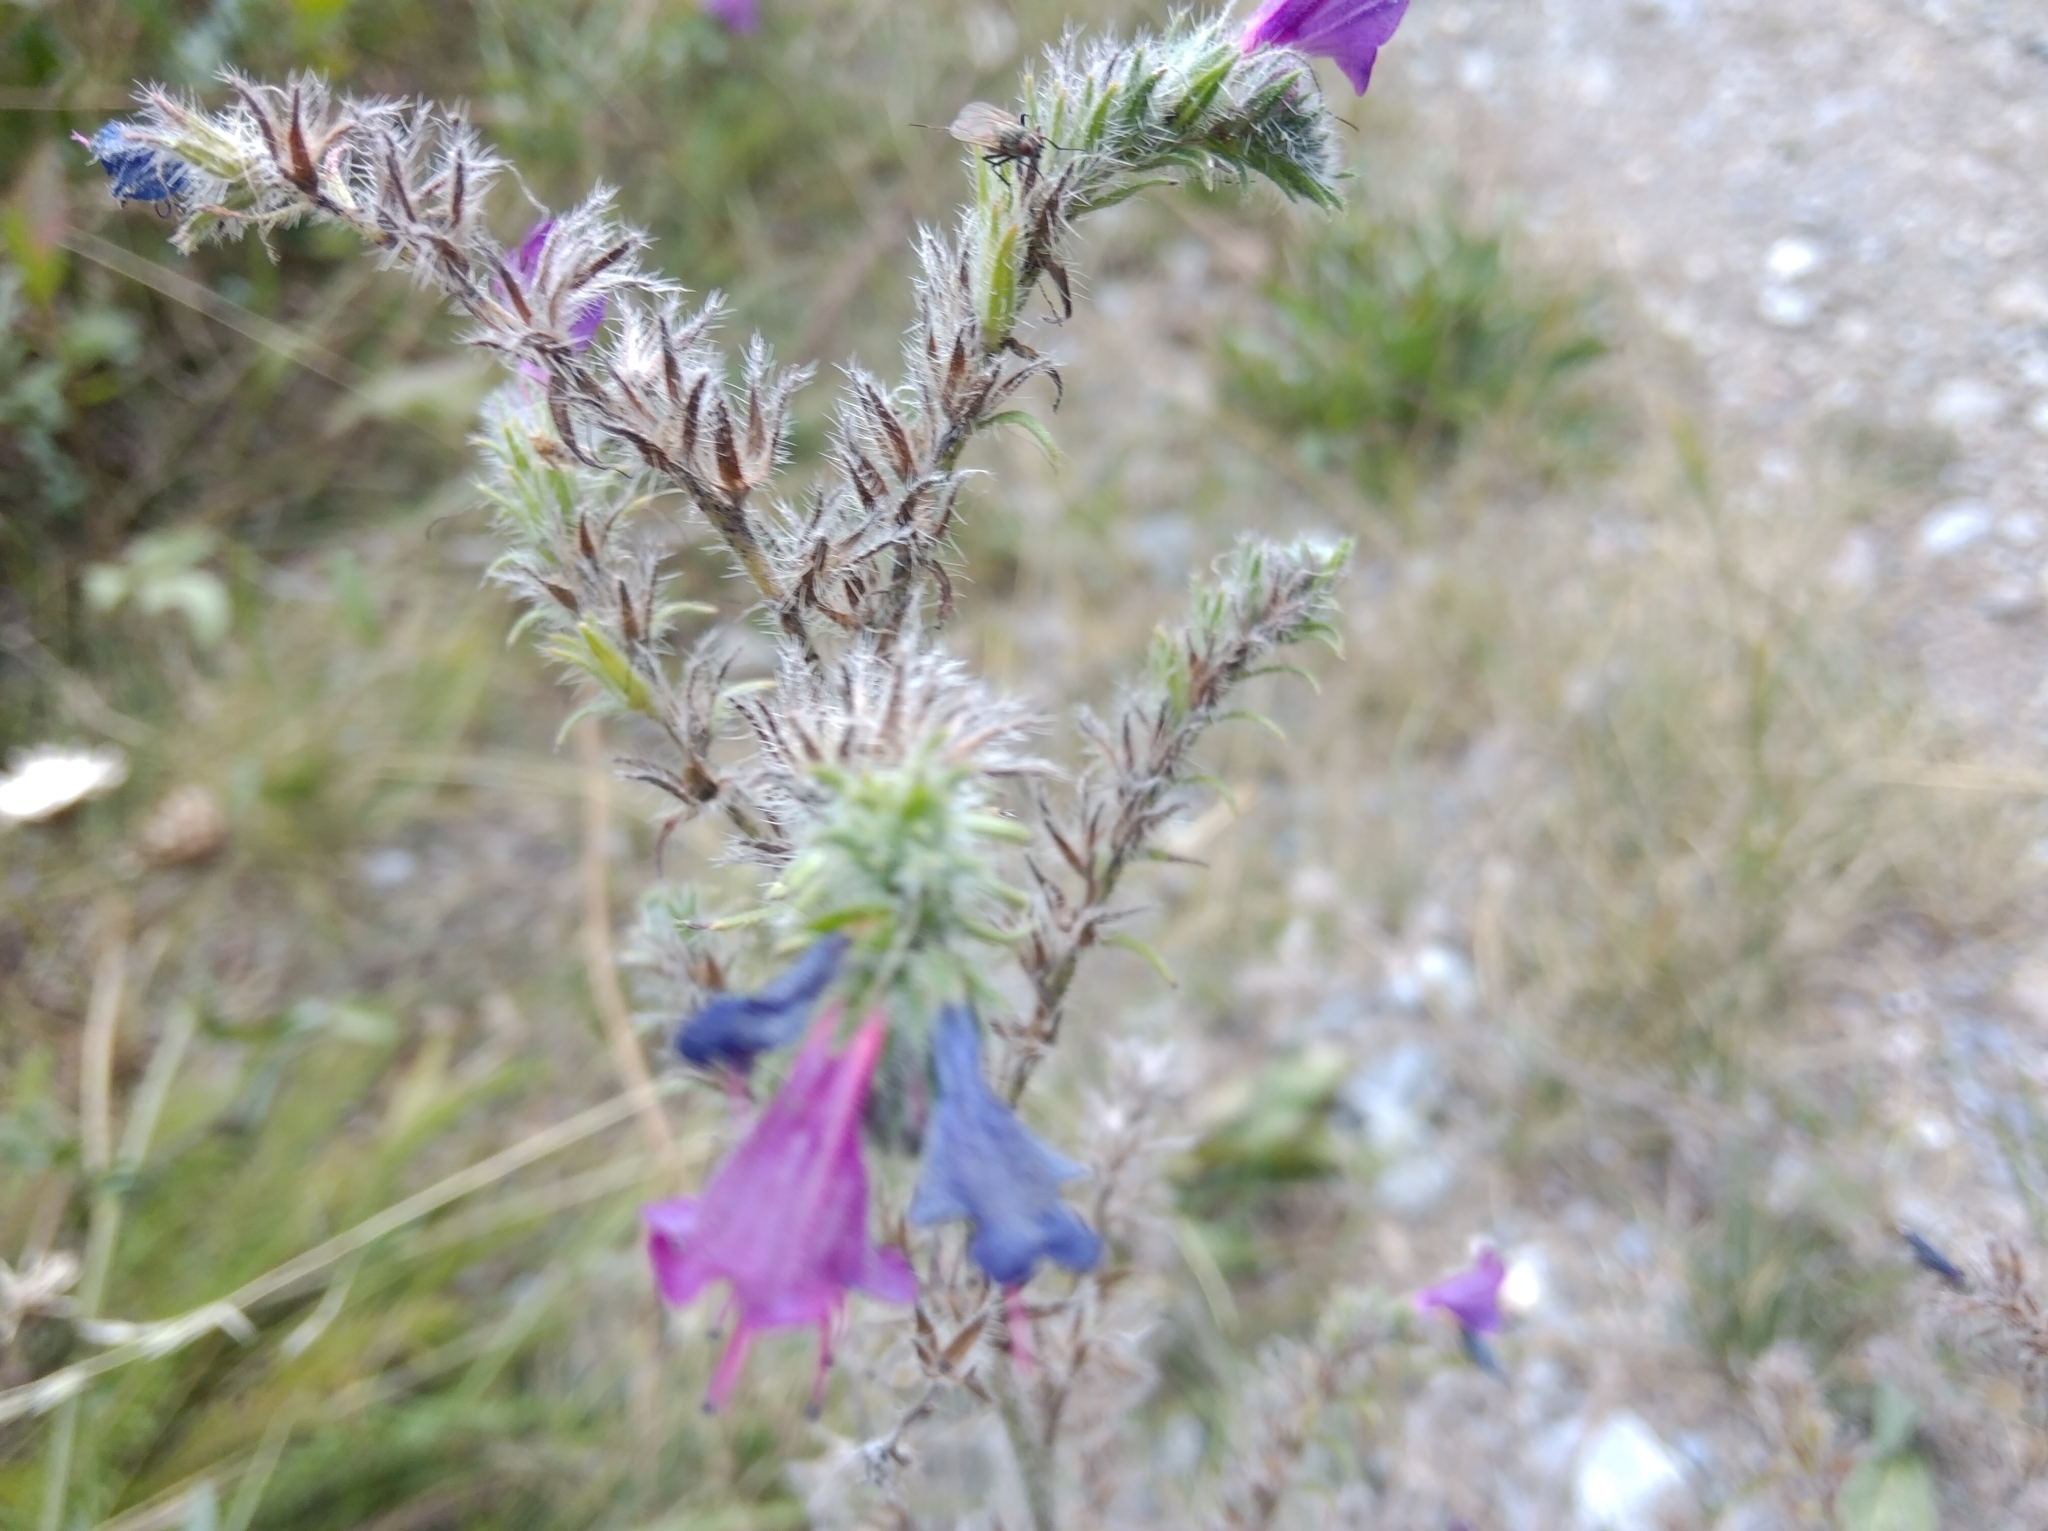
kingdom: Plantae
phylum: Tracheophyta
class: Magnoliopsida
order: Boraginales
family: Boraginaceae
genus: Echium
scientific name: Echium vulgare
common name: Common viper's bugloss
